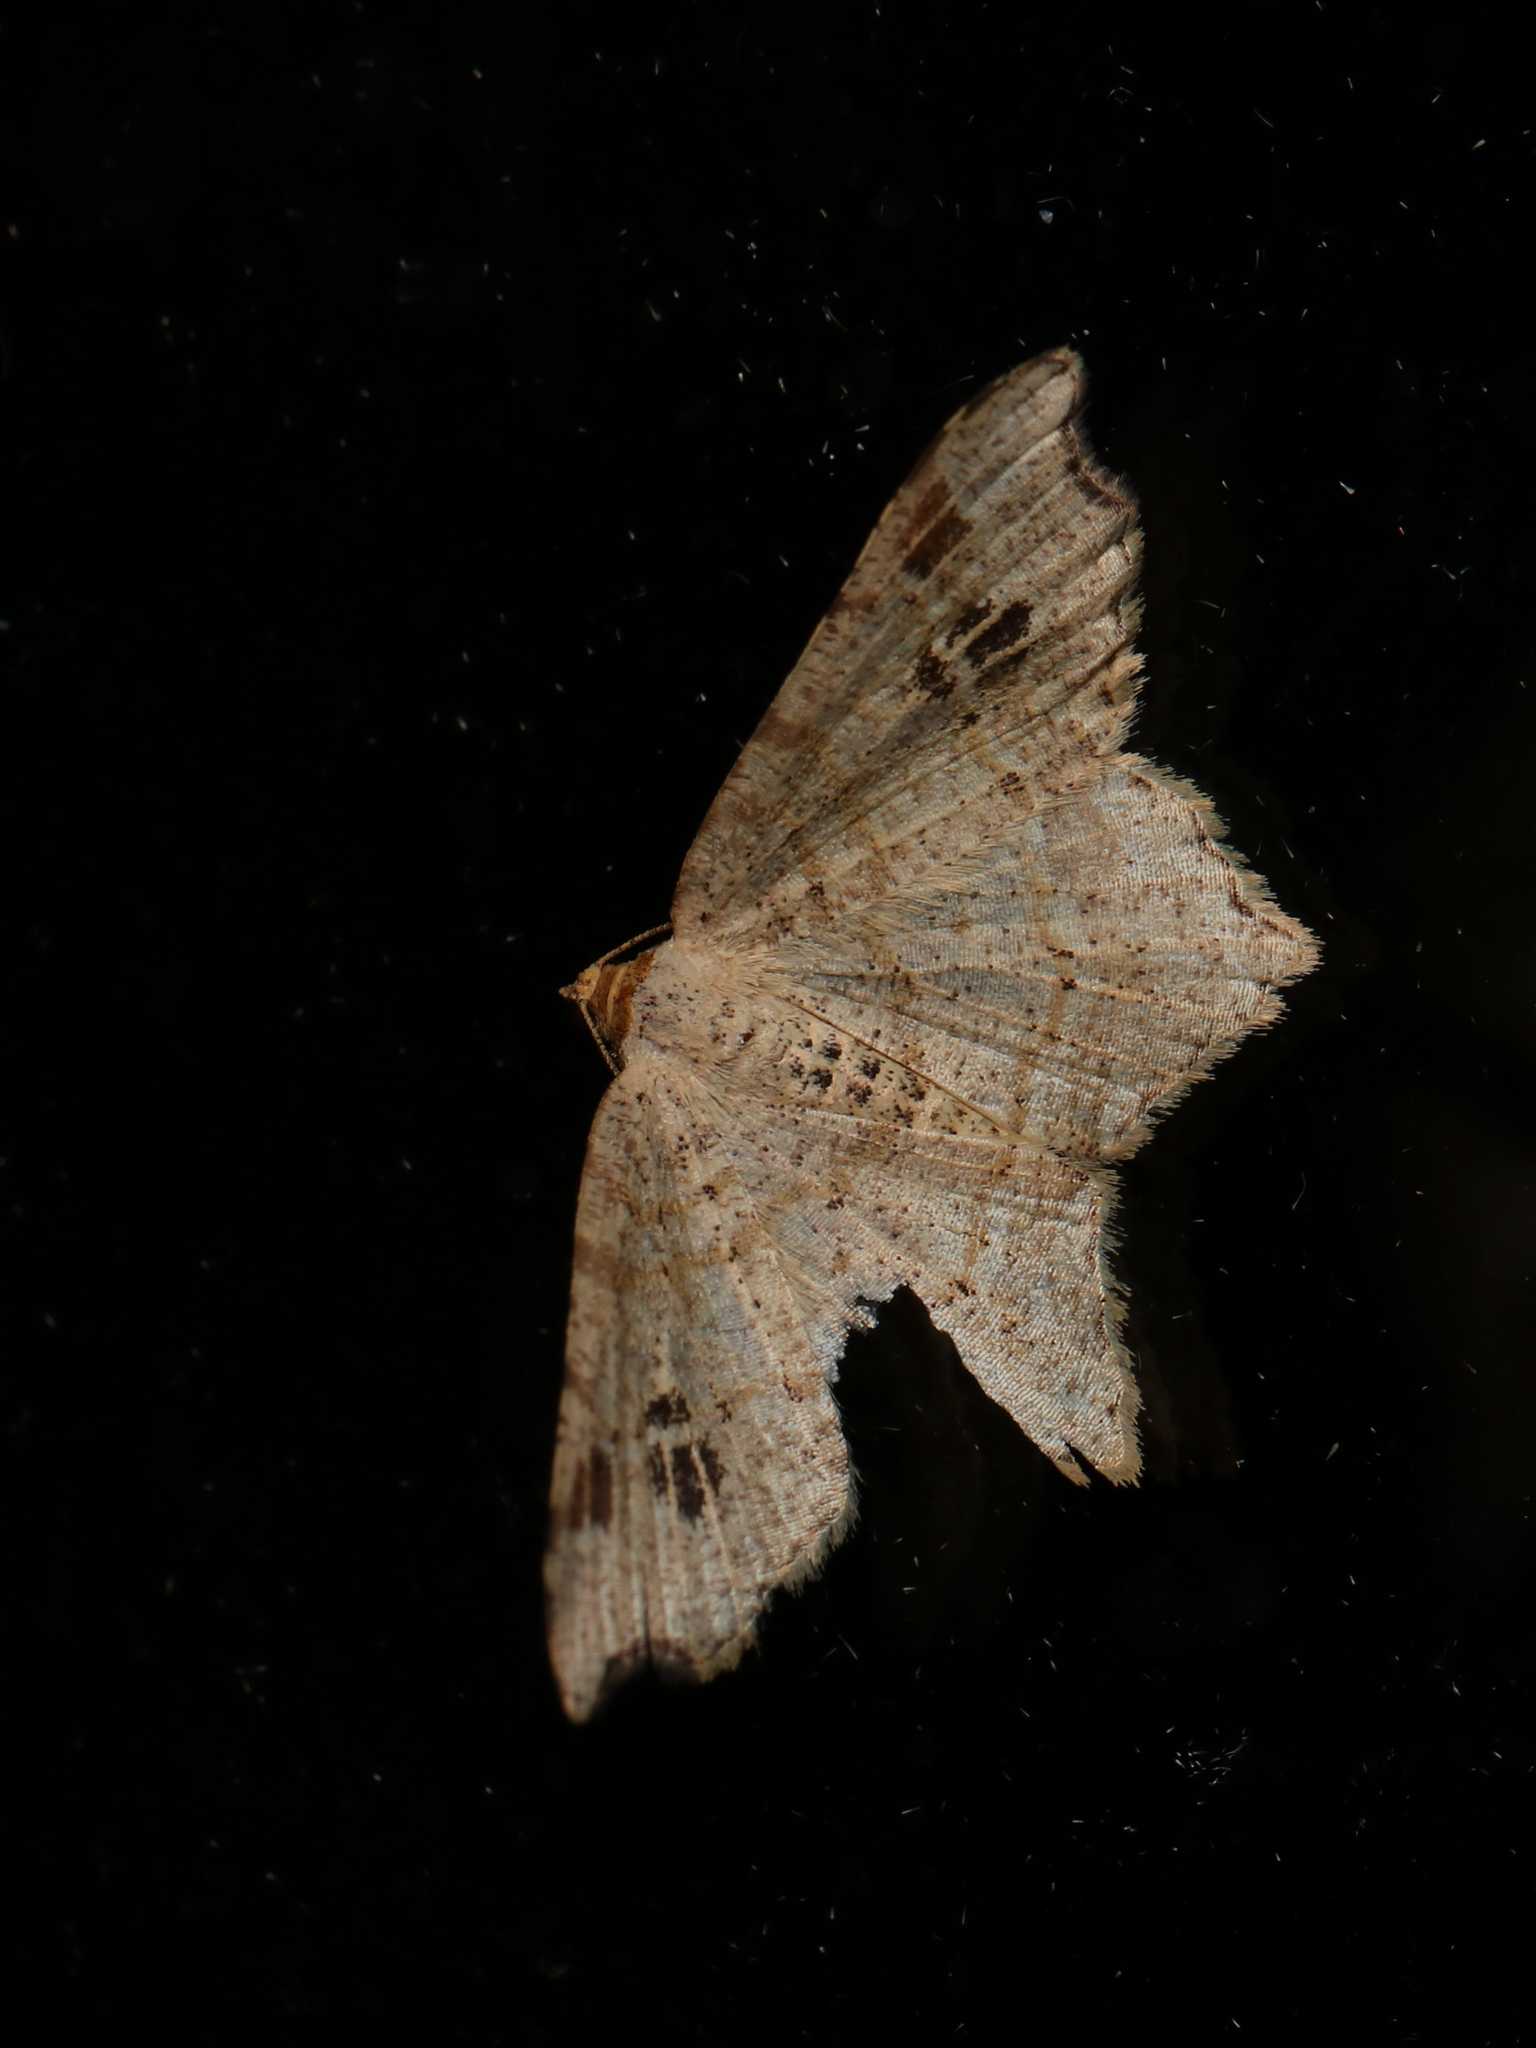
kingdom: Animalia
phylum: Arthropoda
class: Insecta
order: Lepidoptera
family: Geometridae
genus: Macaria
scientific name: Macaria aemulataria
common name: Common angle
